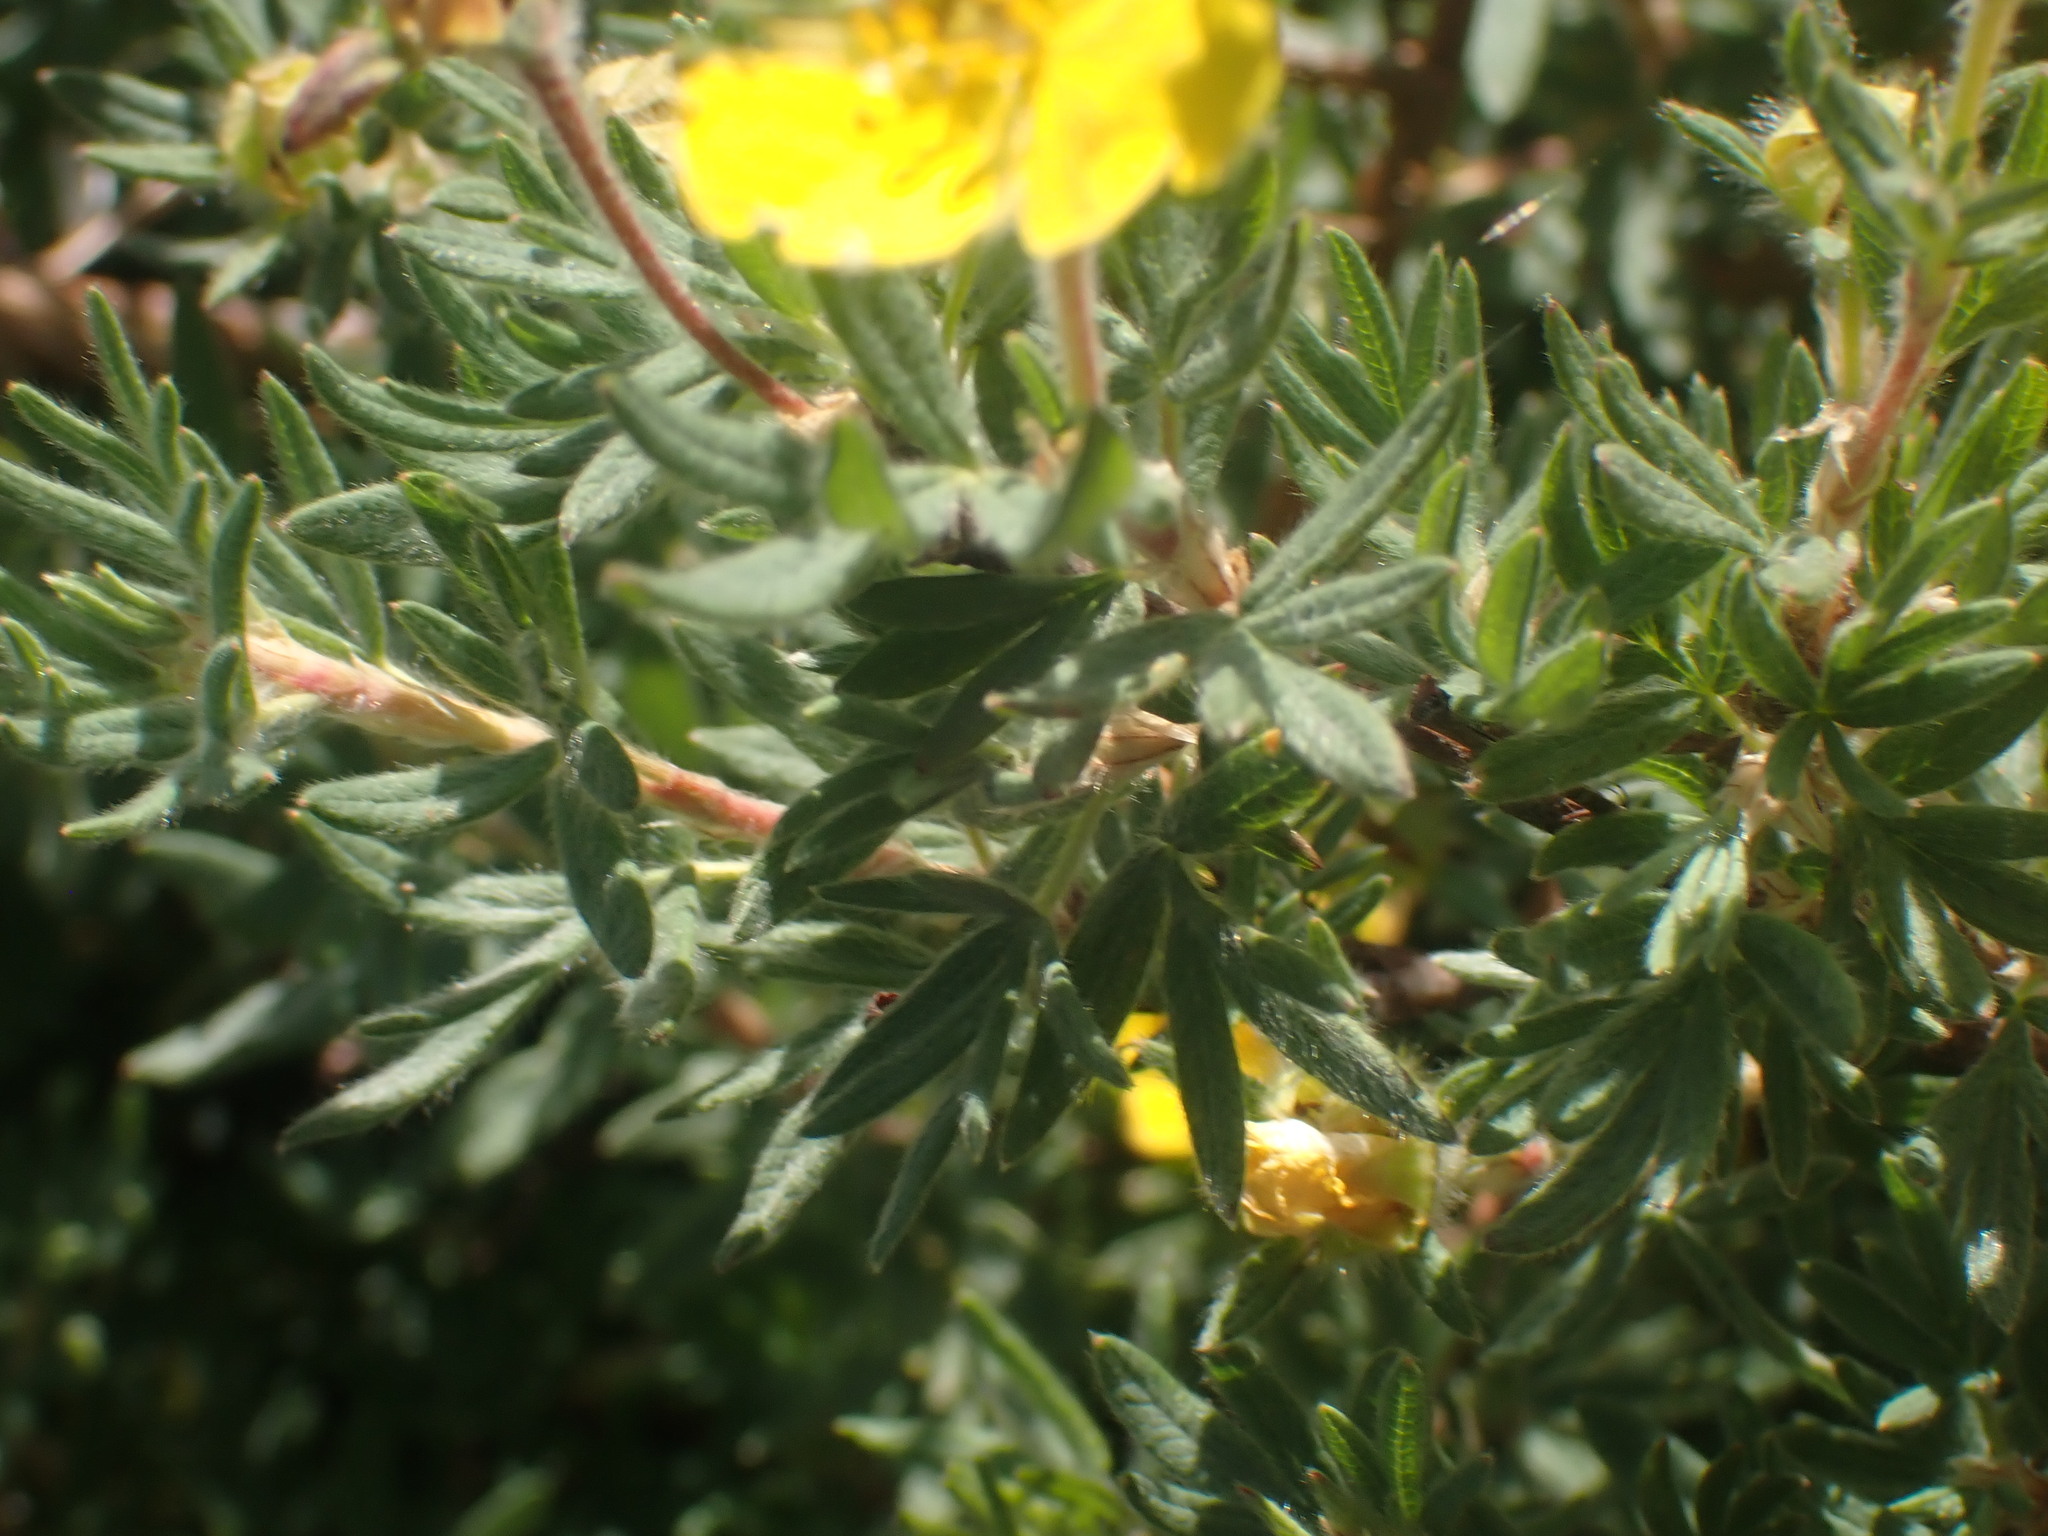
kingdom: Plantae
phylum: Tracheophyta
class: Magnoliopsida
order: Rosales
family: Rosaceae
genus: Dasiphora
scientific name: Dasiphora fruticosa
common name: Shrubby cinquefoil
